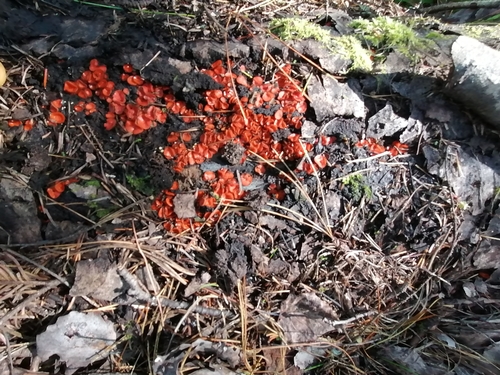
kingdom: Fungi
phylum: Ascomycota
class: Pezizomycetes
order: Pezizales
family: Pyronemataceae
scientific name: Pyronemataceae
